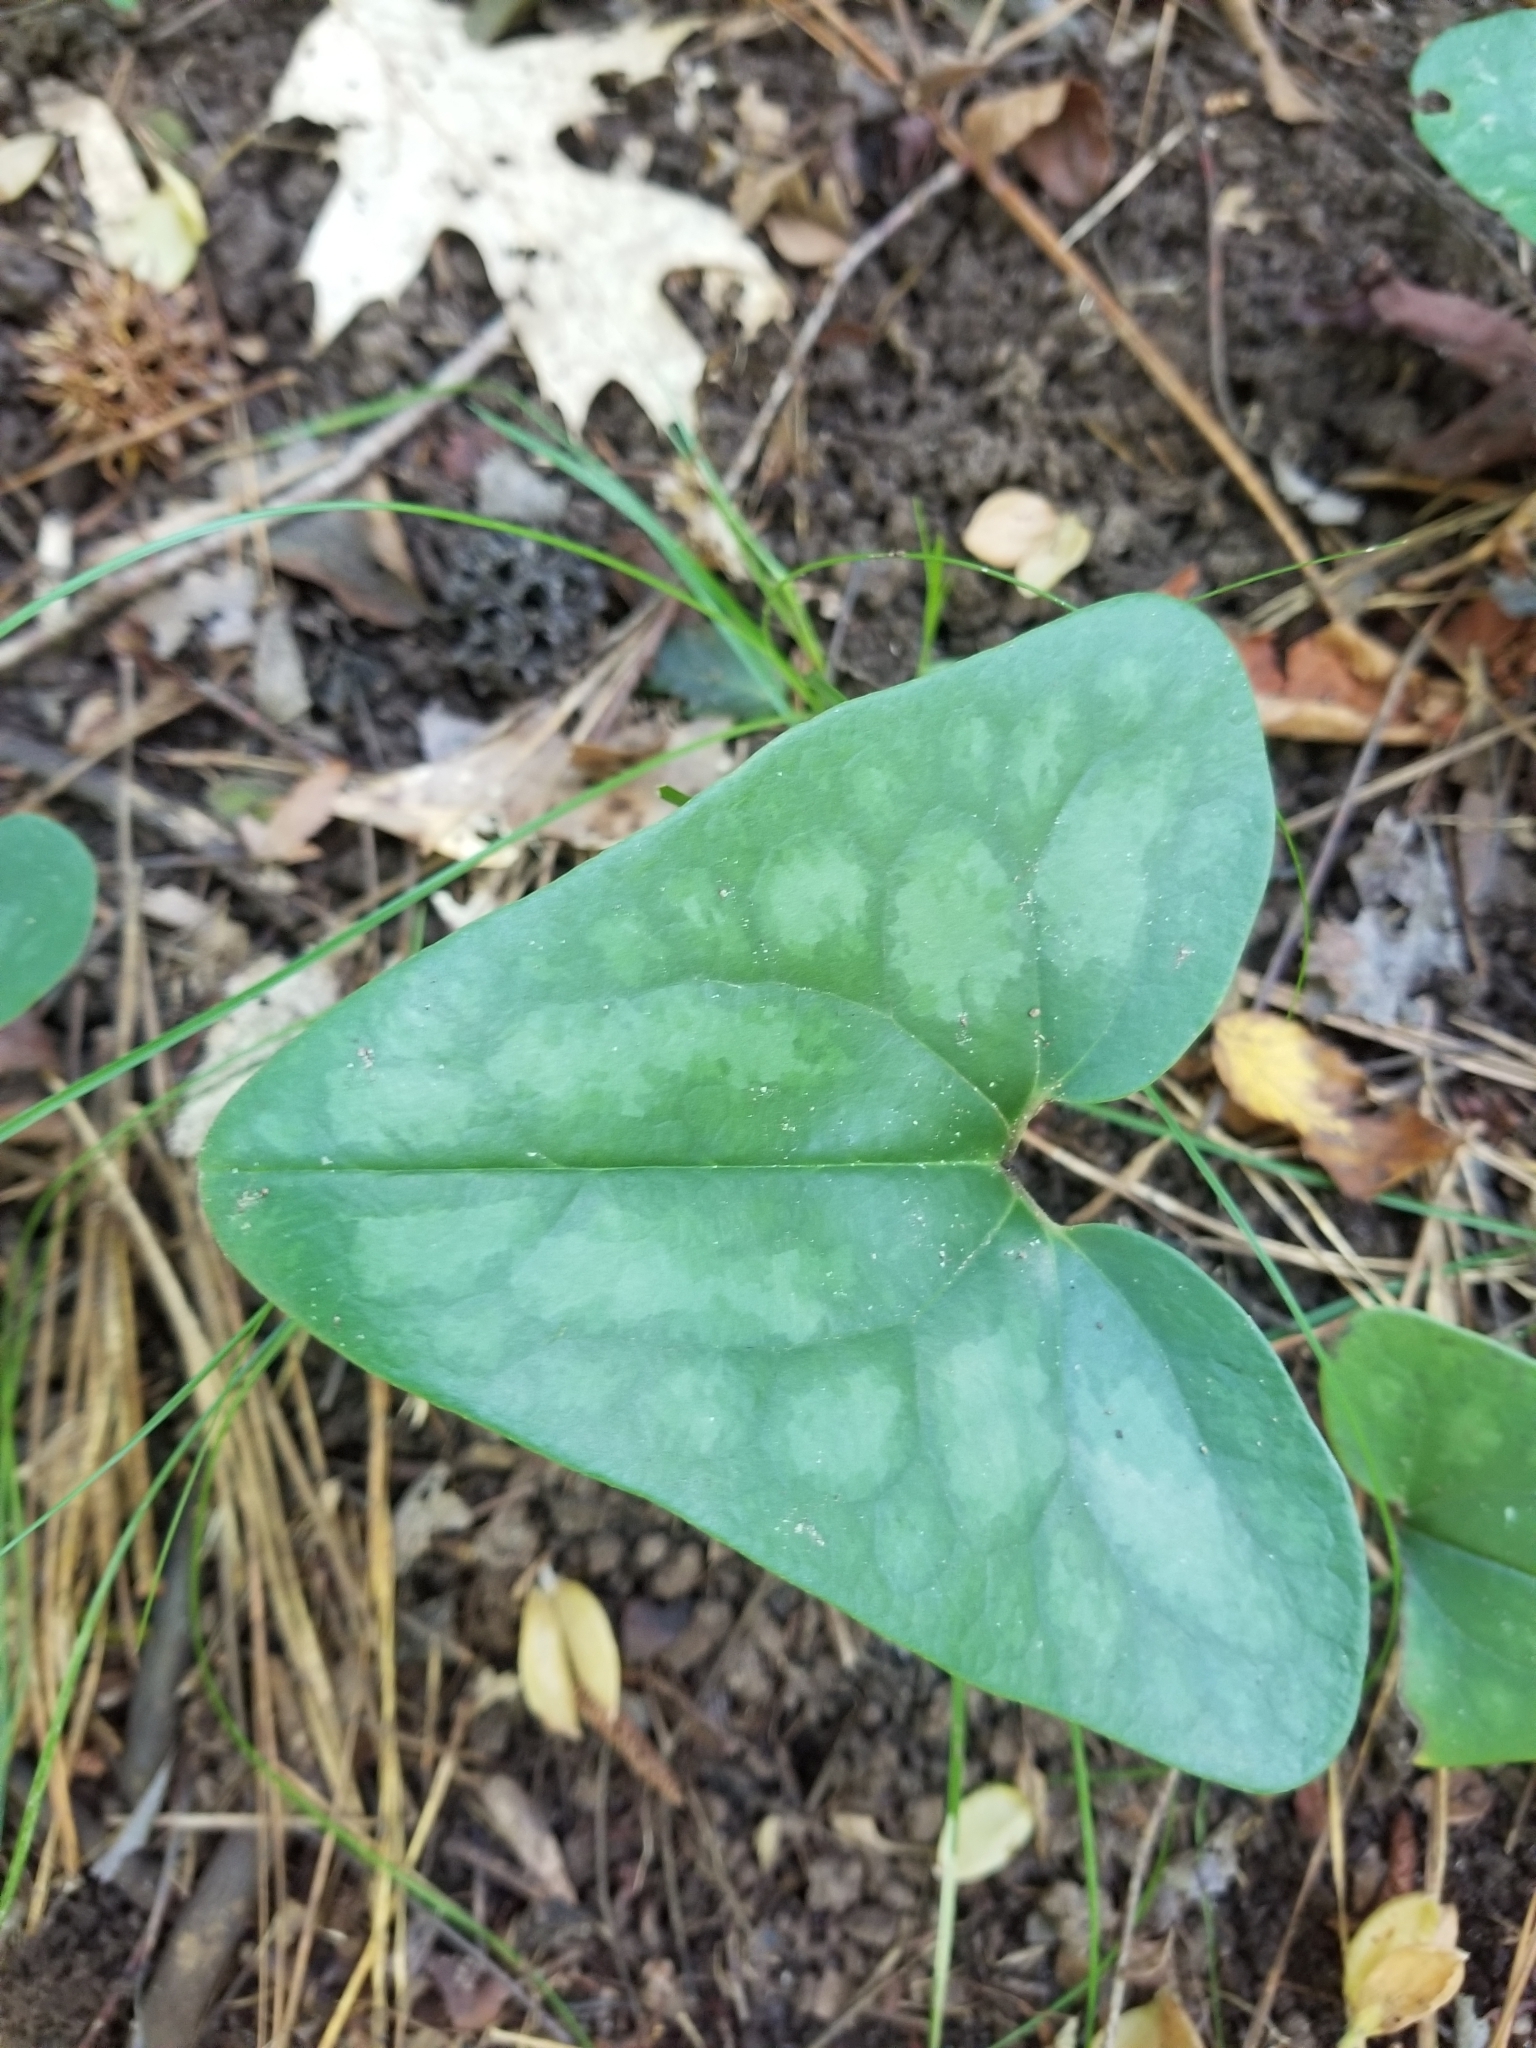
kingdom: Plantae
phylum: Tracheophyta
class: Magnoliopsida
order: Piperales
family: Aristolochiaceae
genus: Hexastylis
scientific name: Hexastylis arifolia
